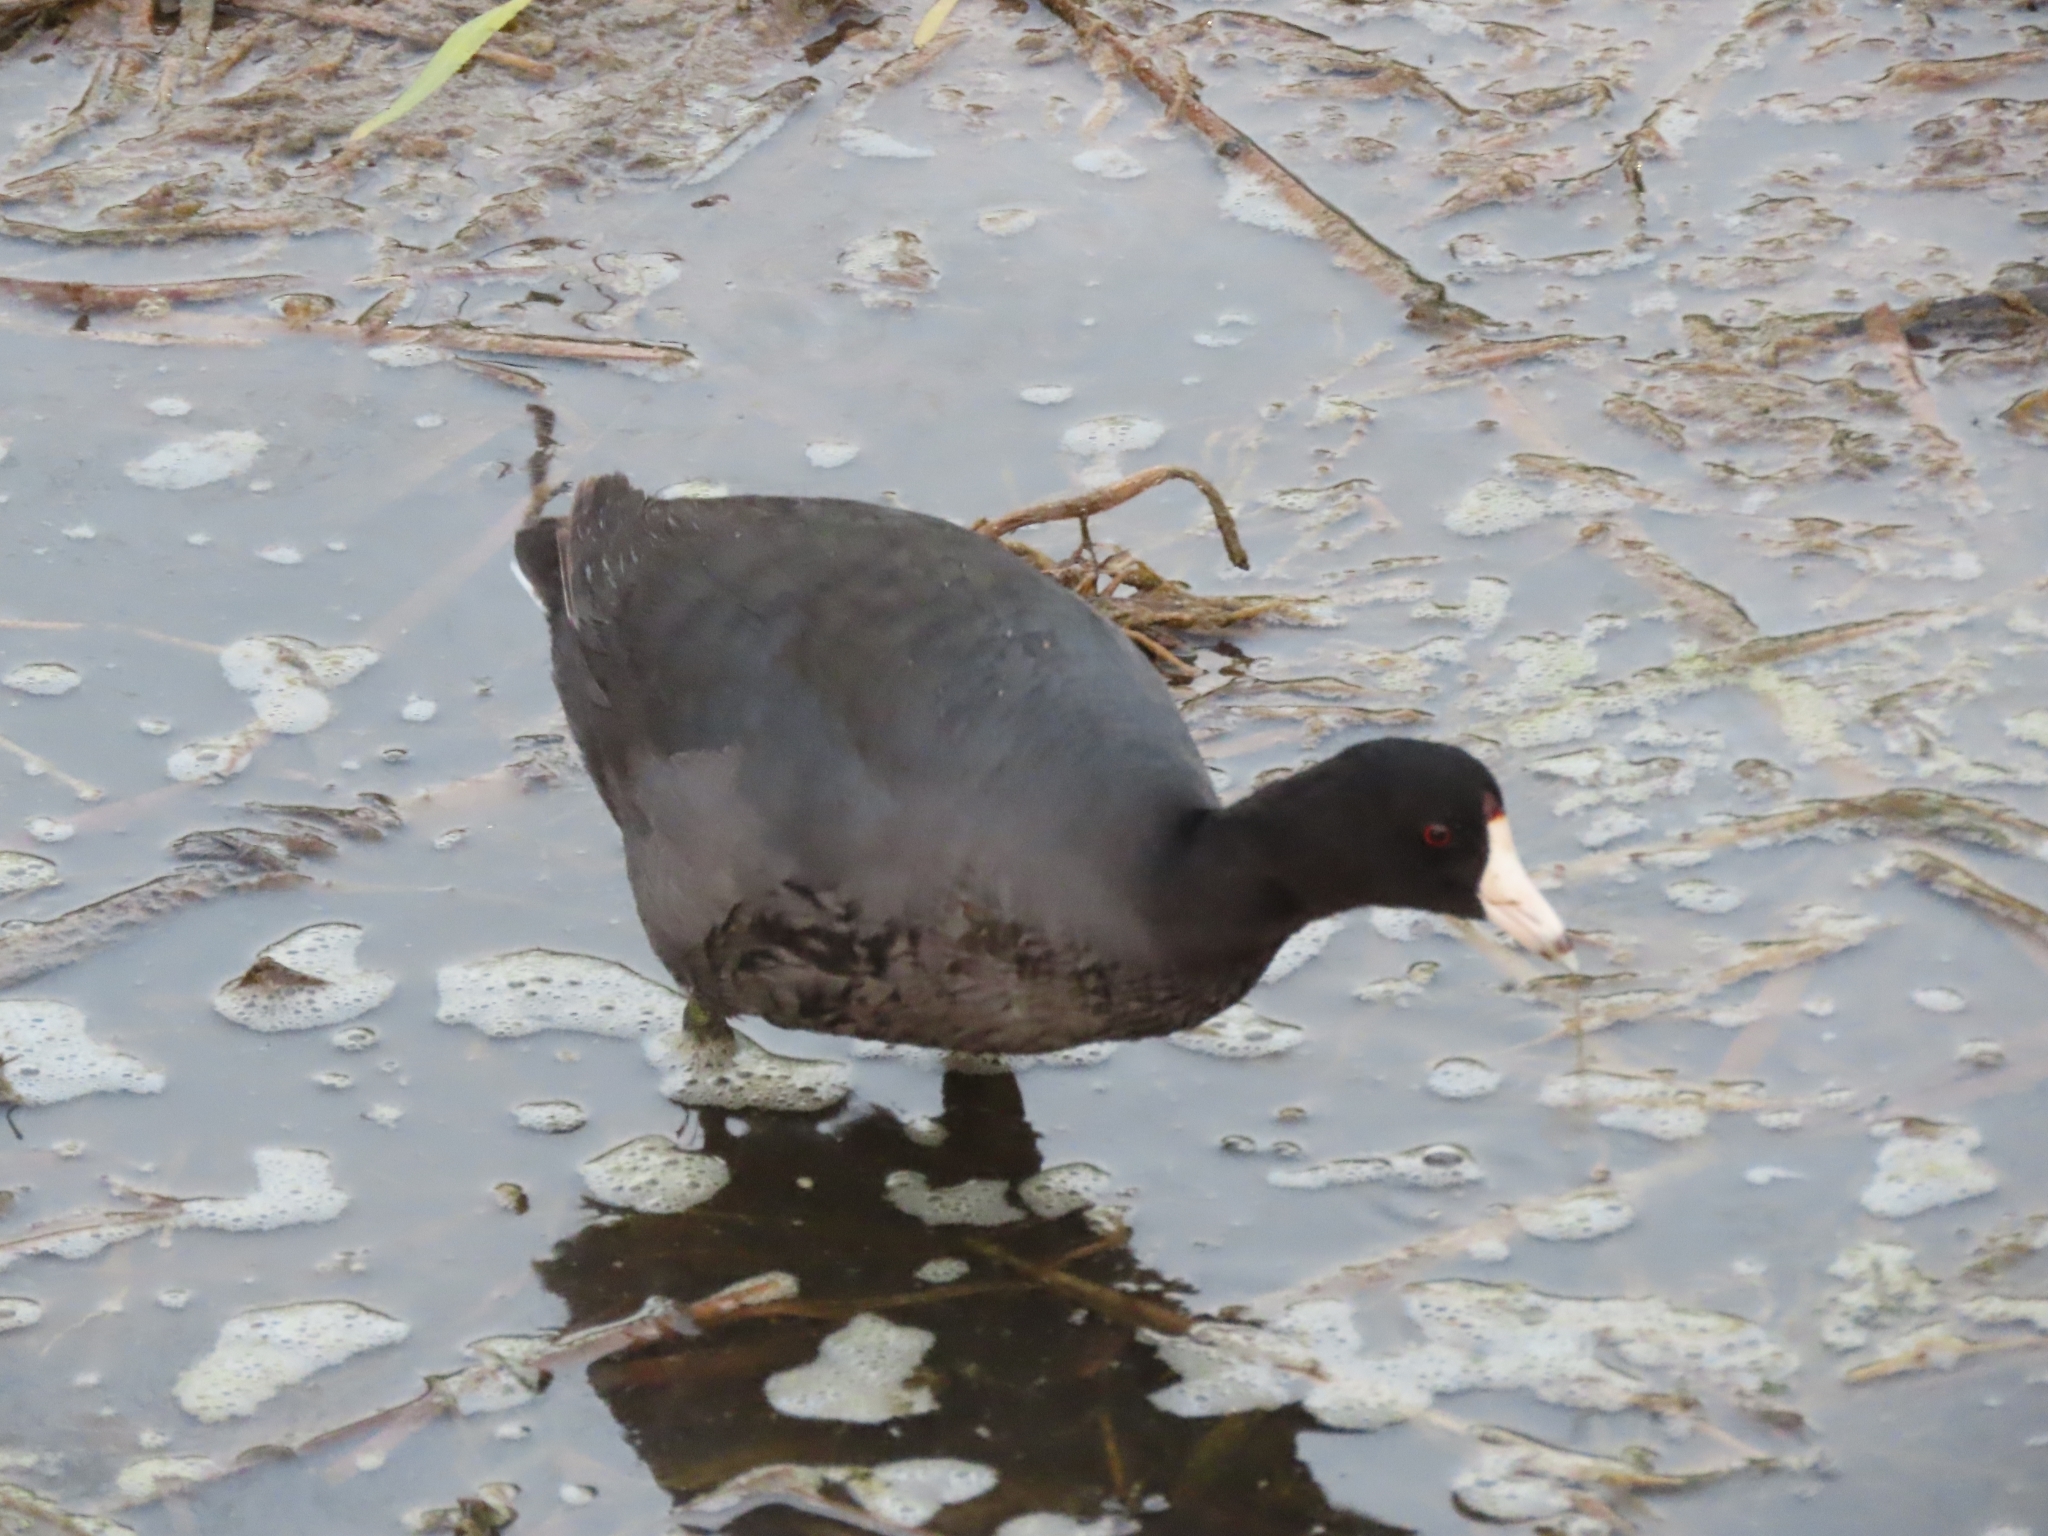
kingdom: Animalia
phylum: Chordata
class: Aves
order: Gruiformes
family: Rallidae
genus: Fulica
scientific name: Fulica americana
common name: American coot
